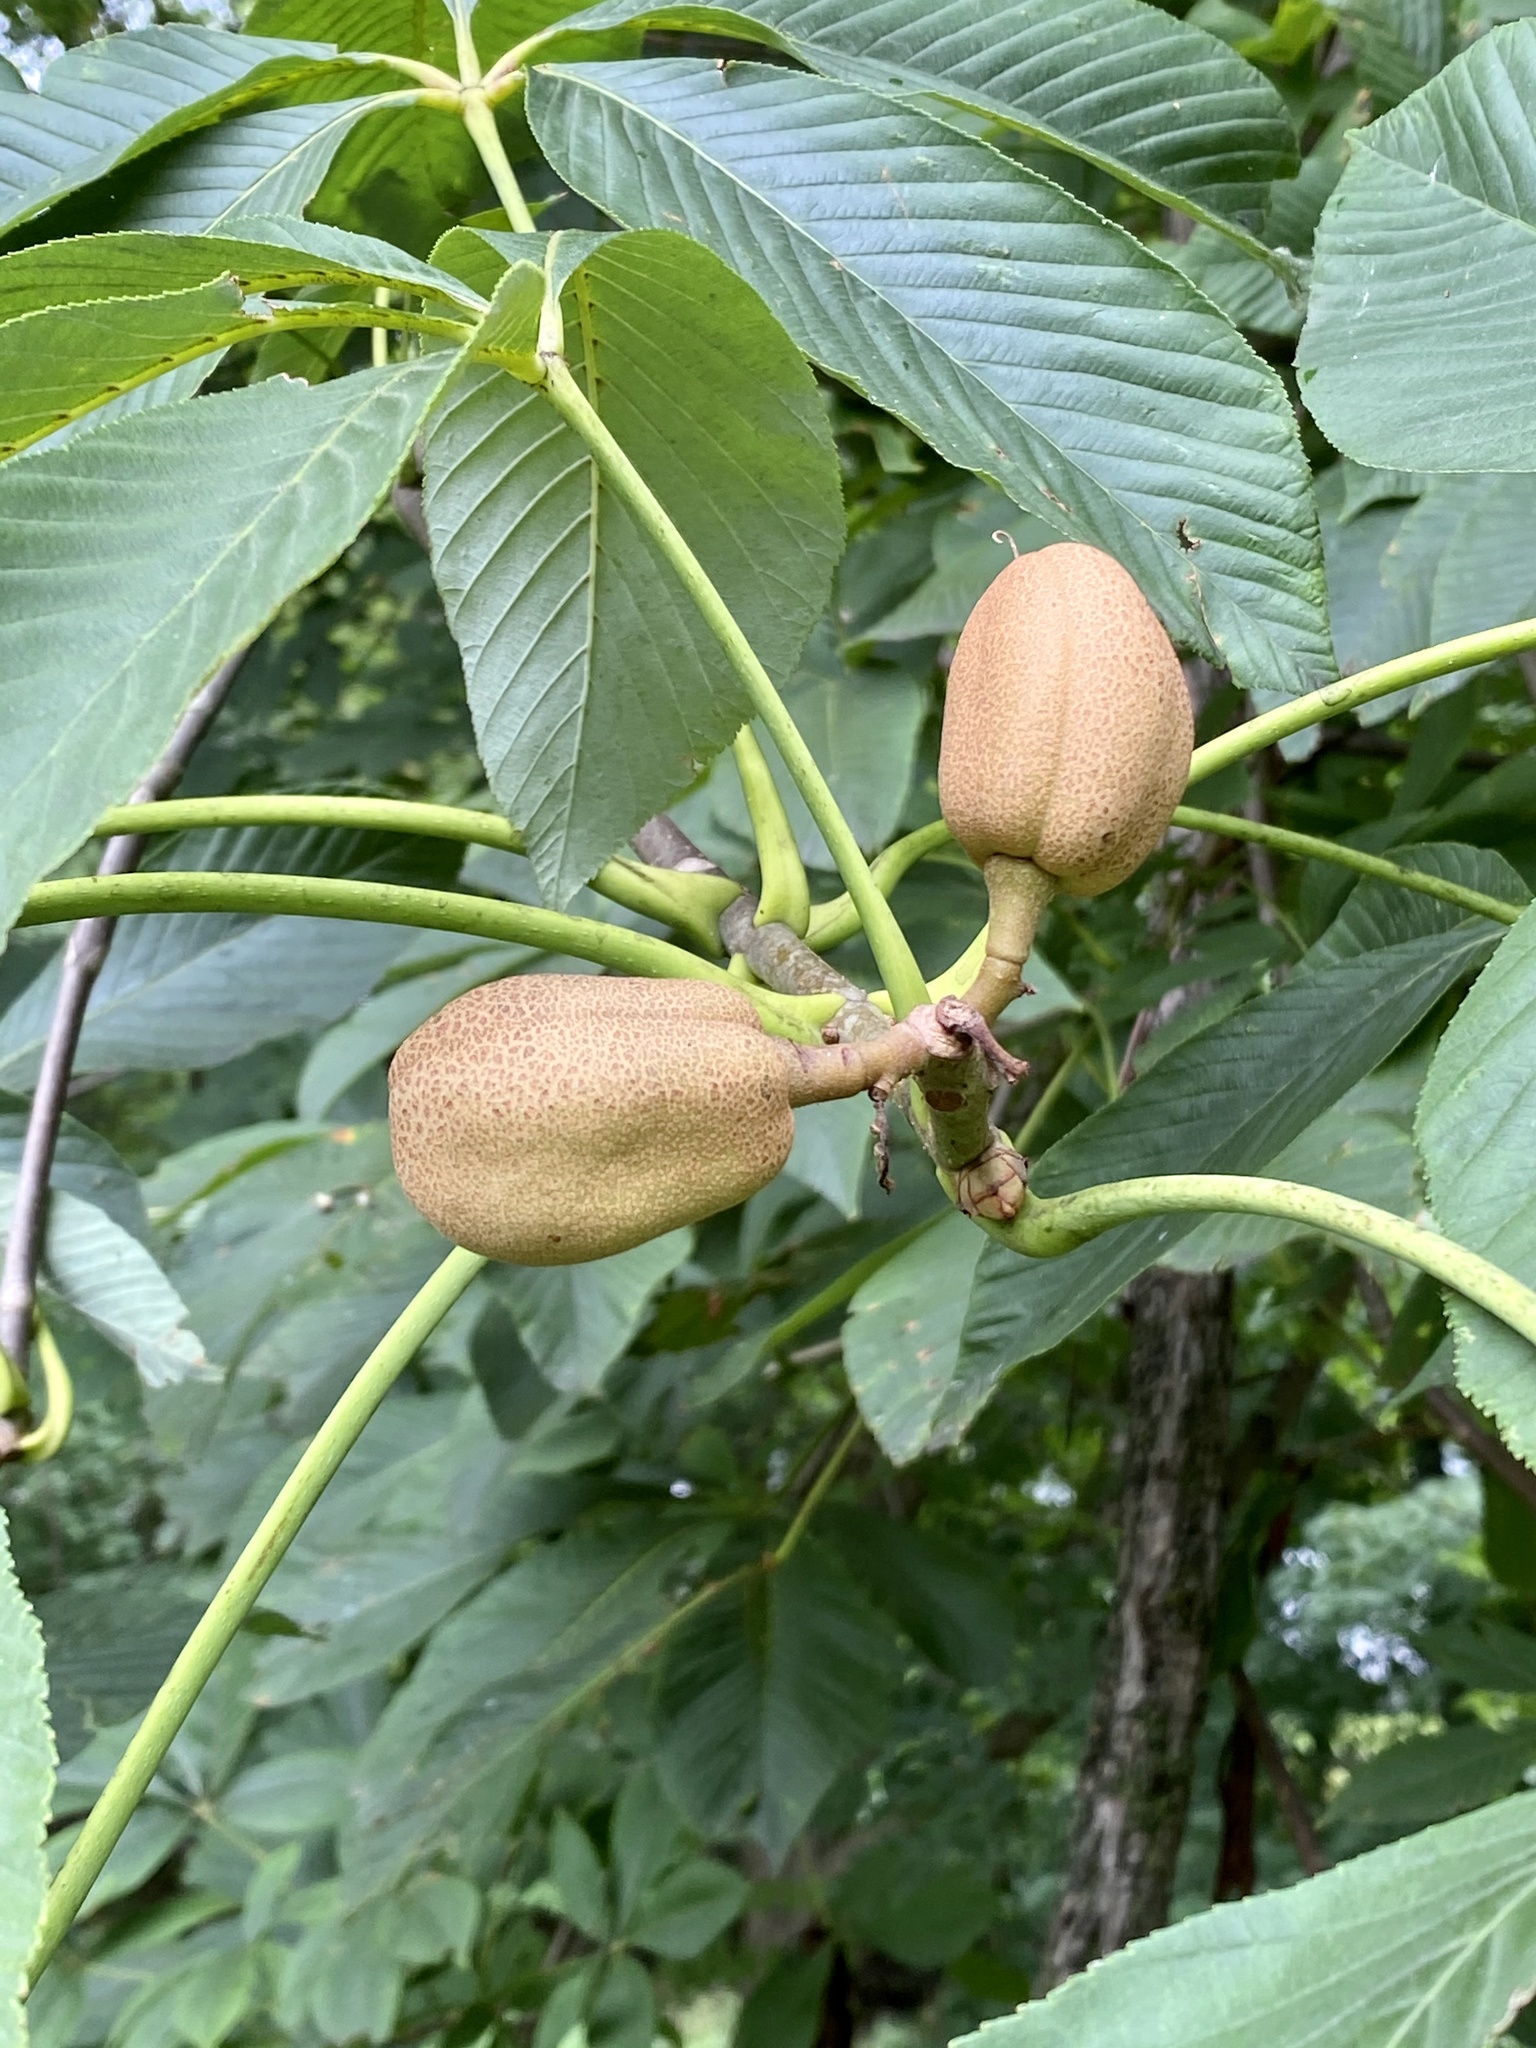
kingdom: Plantae
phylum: Tracheophyta
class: Magnoliopsida
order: Sapindales
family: Sapindaceae
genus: Aesculus
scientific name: Aesculus flava
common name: Yellow buckeye
